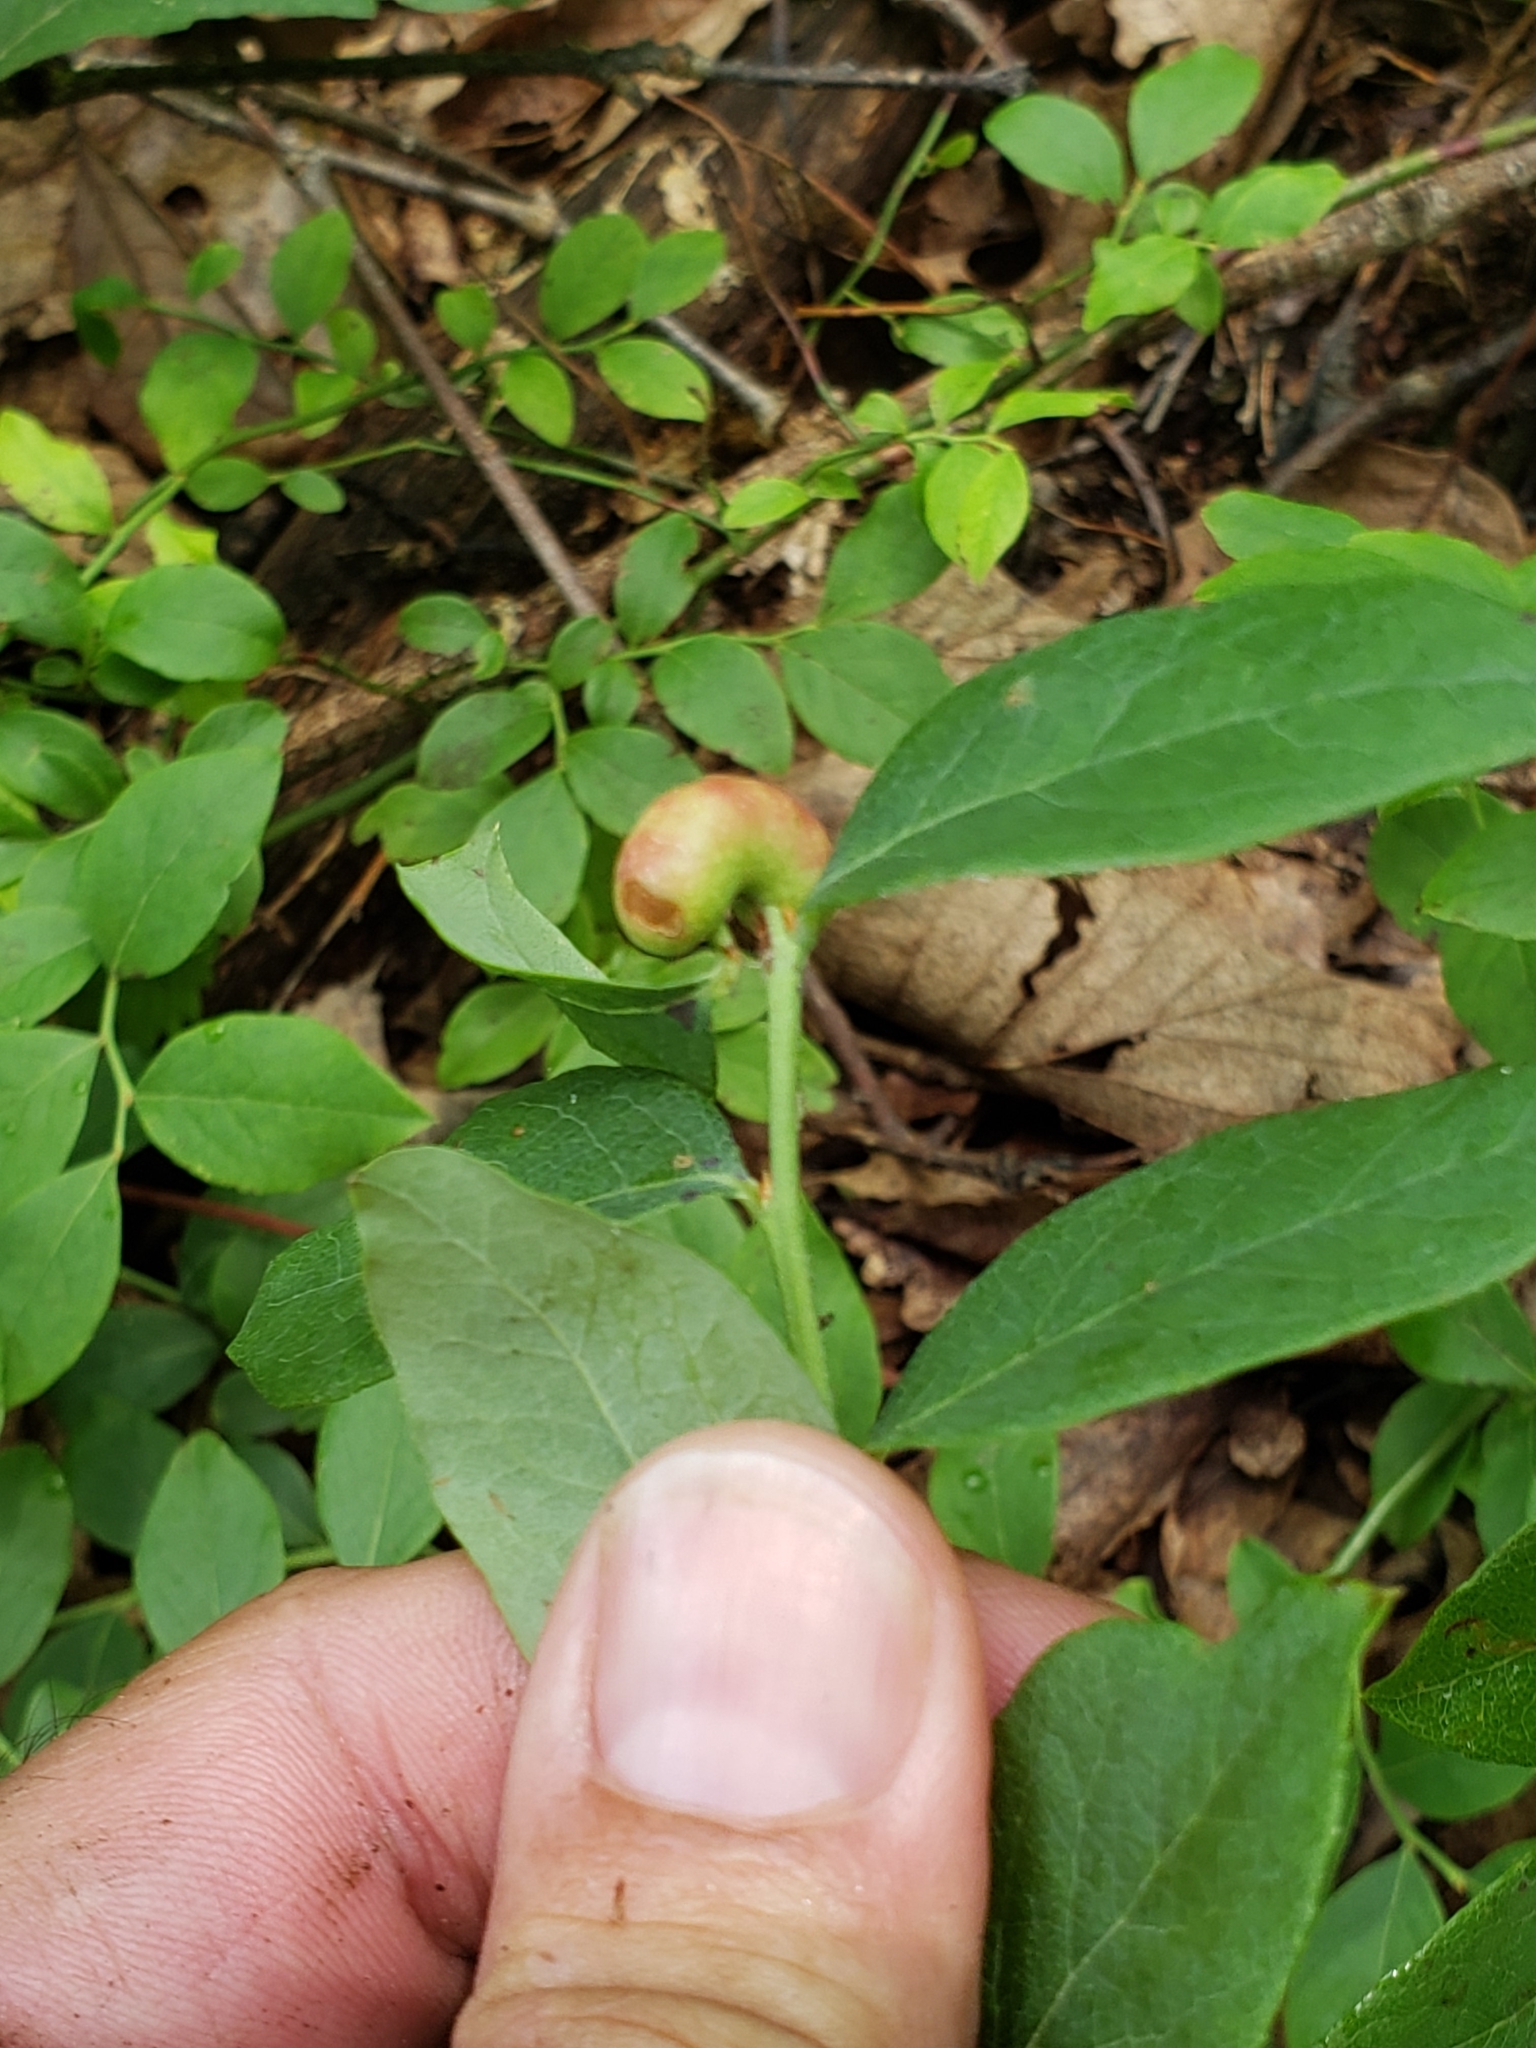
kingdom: Animalia
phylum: Arthropoda
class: Insecta
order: Hymenoptera
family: Pteromalidae
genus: Hemadas
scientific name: Hemadas nubilipennis
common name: Blueberry stem gall wasp
